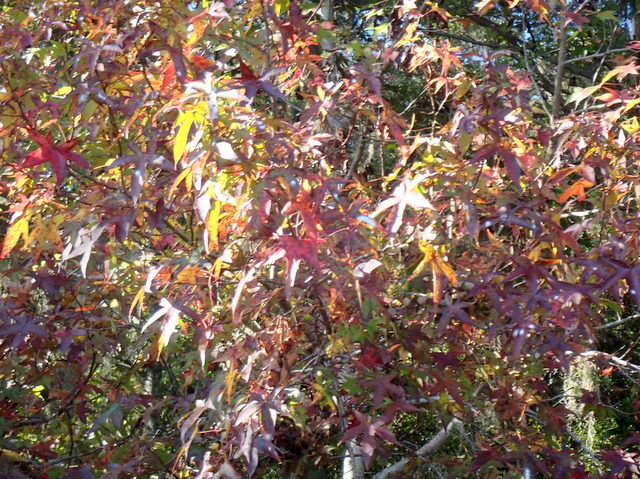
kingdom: Plantae
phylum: Tracheophyta
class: Magnoliopsida
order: Saxifragales
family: Altingiaceae
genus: Liquidambar
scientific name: Liquidambar styraciflua
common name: Sweet gum
